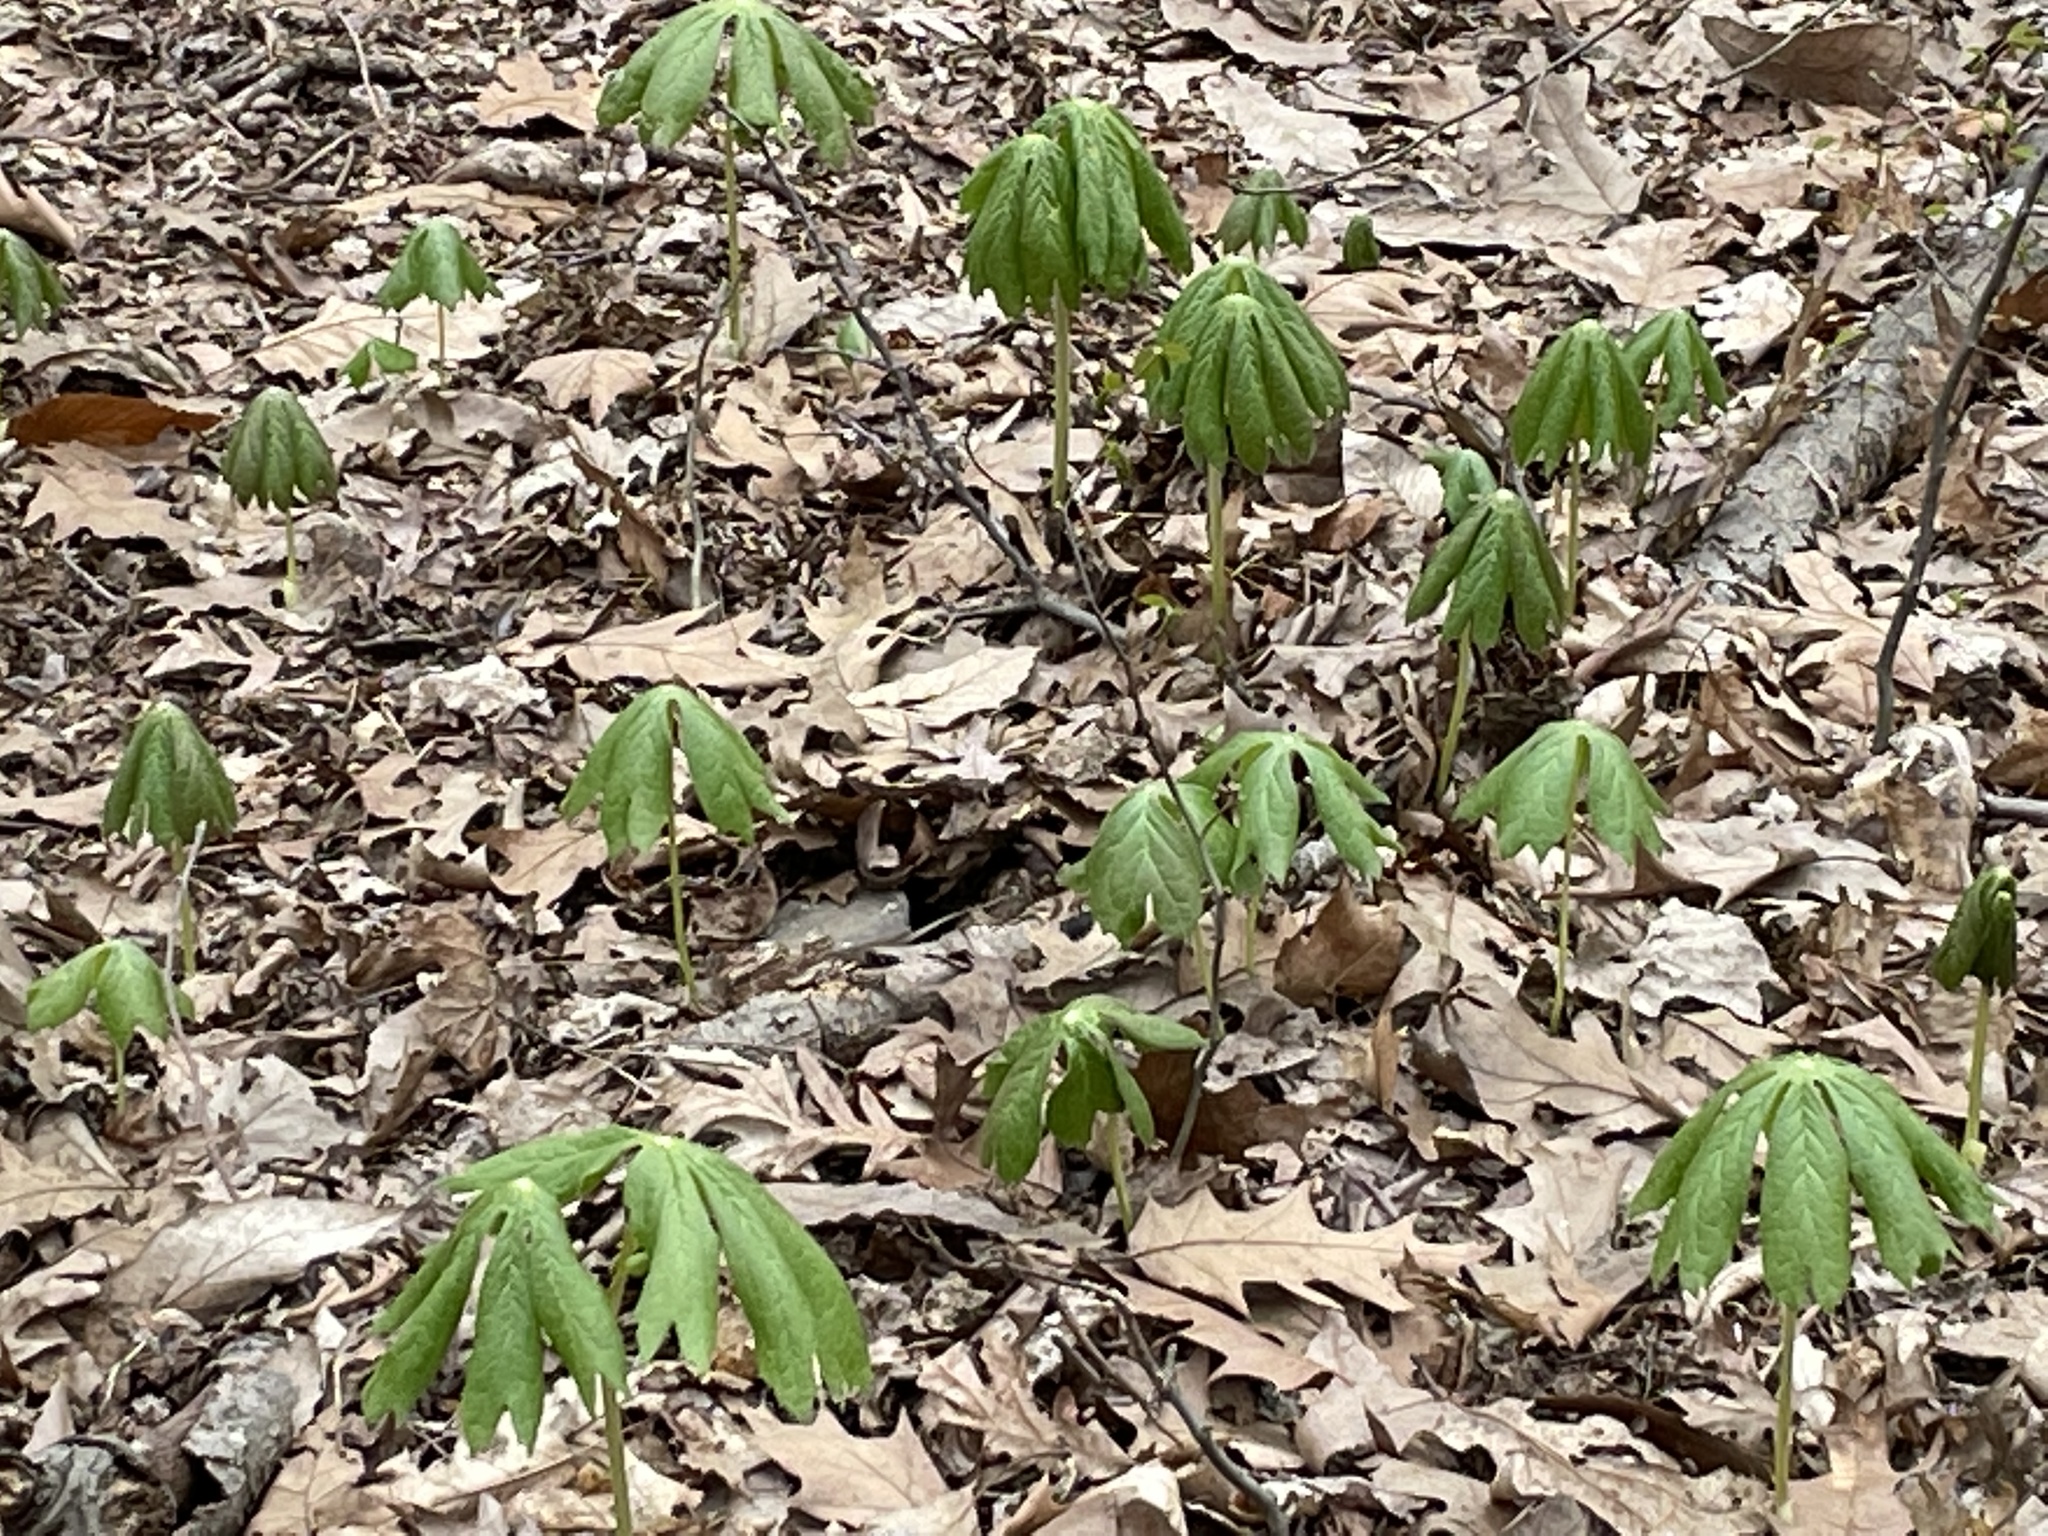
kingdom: Plantae
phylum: Tracheophyta
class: Magnoliopsida
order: Ranunculales
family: Berberidaceae
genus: Podophyllum
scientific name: Podophyllum peltatum
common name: Wild mandrake
